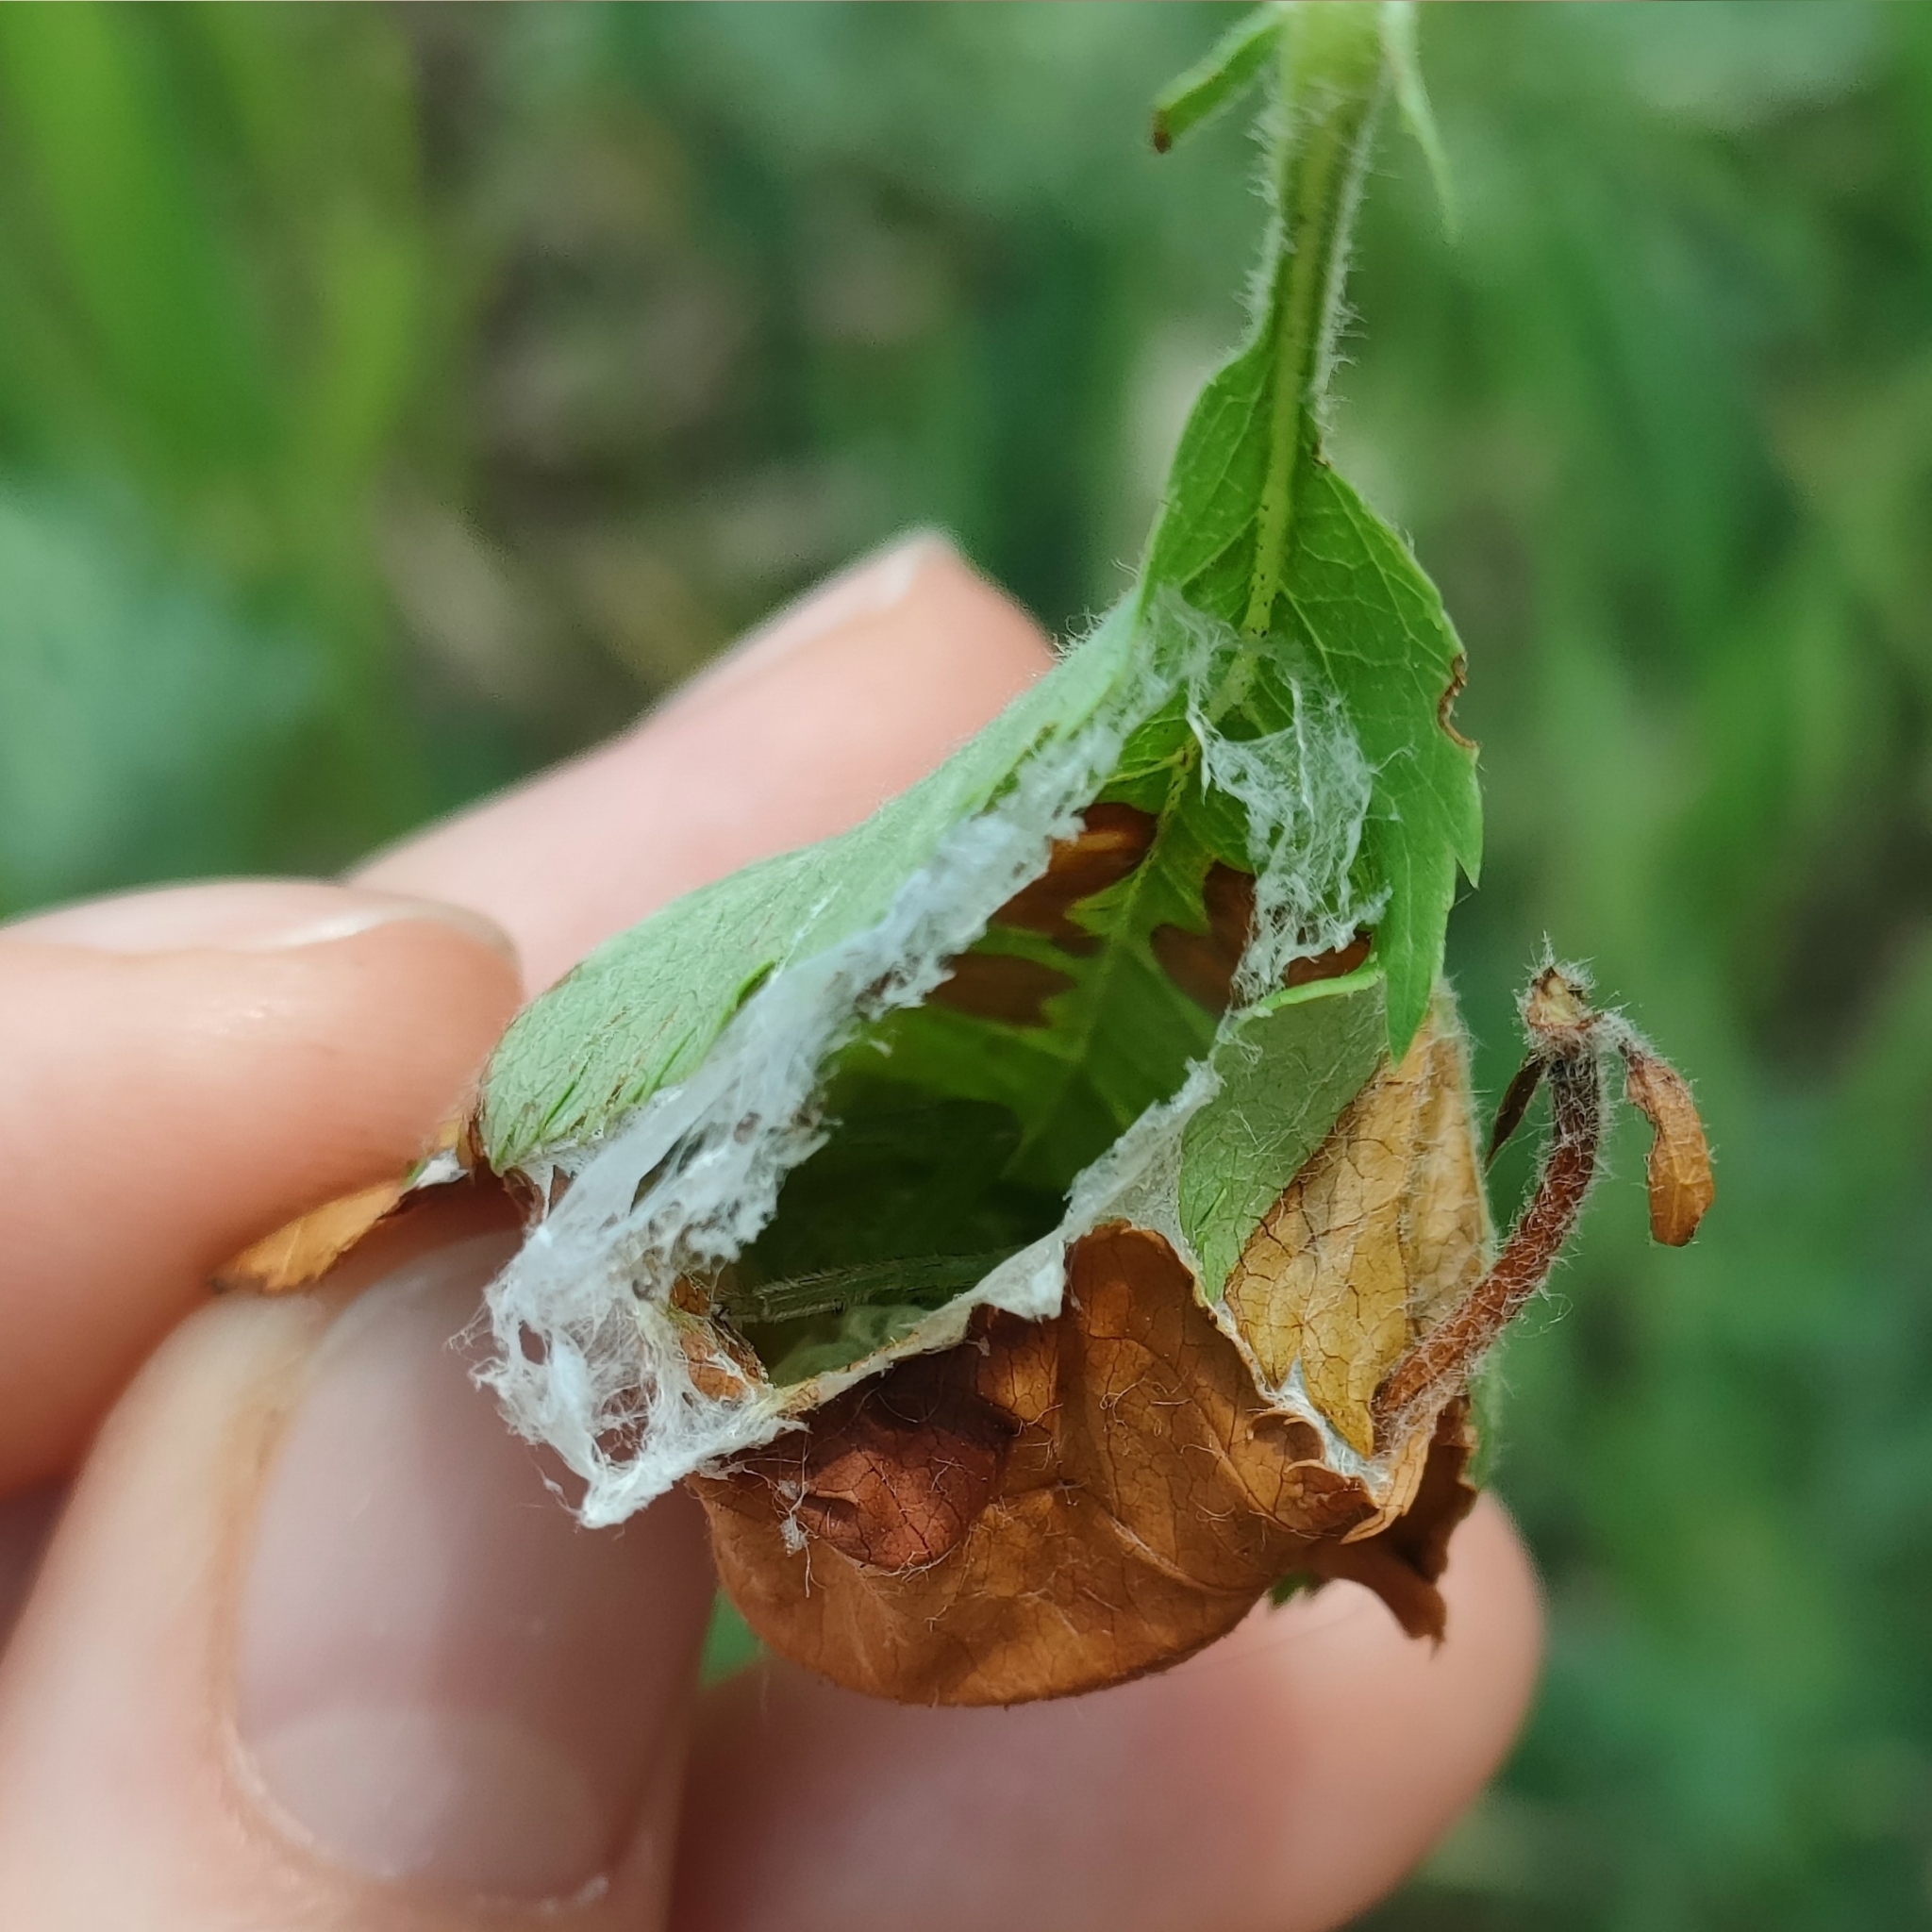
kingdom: Animalia
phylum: Arthropoda
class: Arachnida
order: Araneae
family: Sparassidae
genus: Micrommata
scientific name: Micrommata virescens
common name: Green spider
